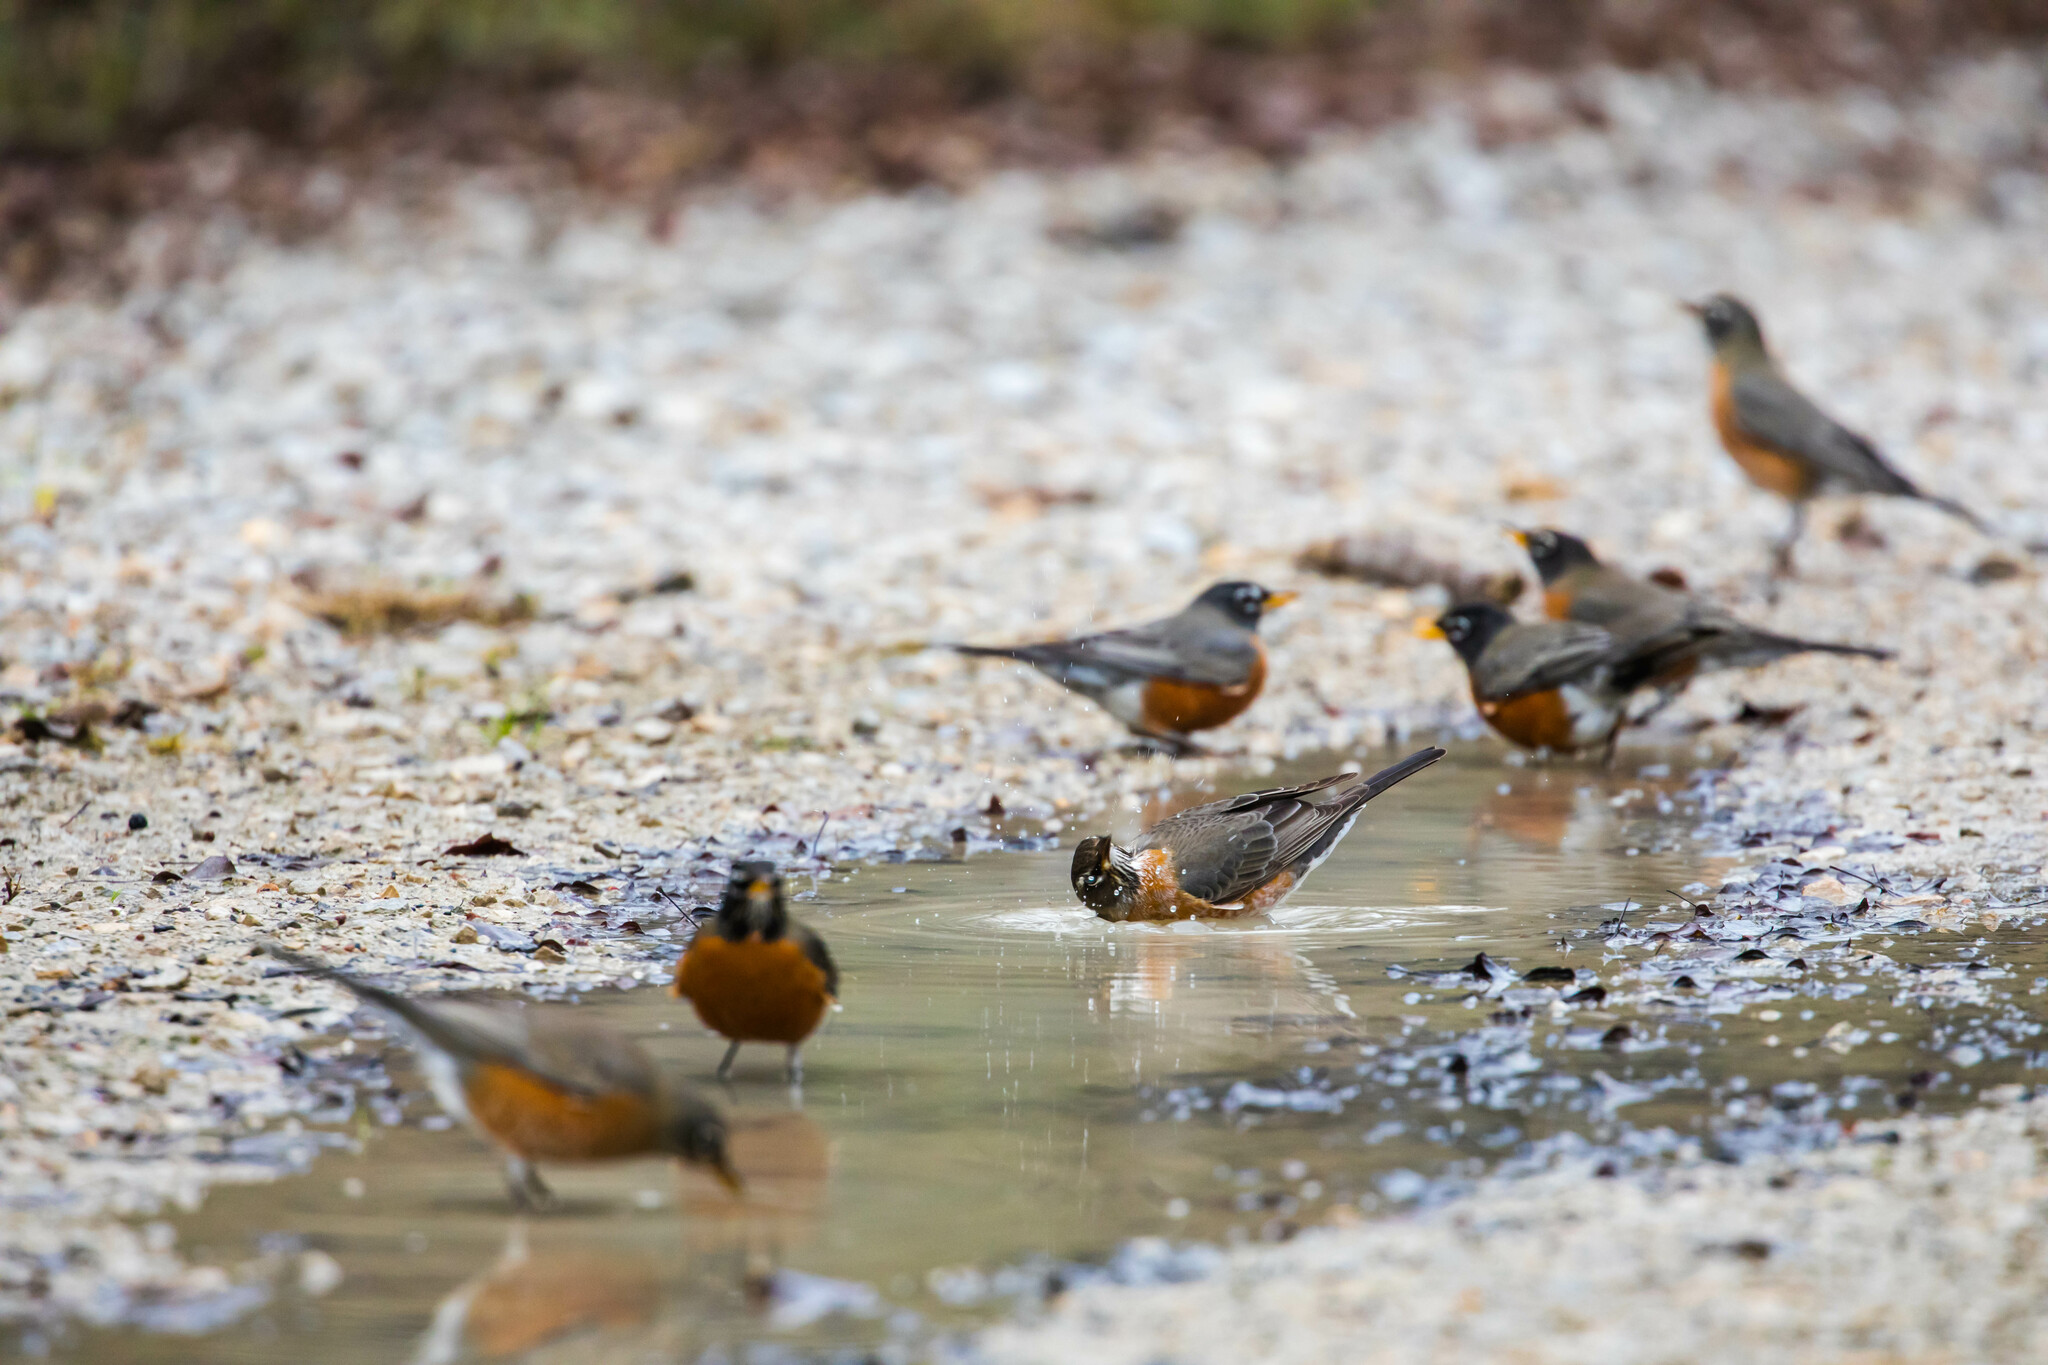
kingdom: Animalia
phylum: Chordata
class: Aves
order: Passeriformes
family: Turdidae
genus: Turdus
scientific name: Turdus migratorius
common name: American robin
